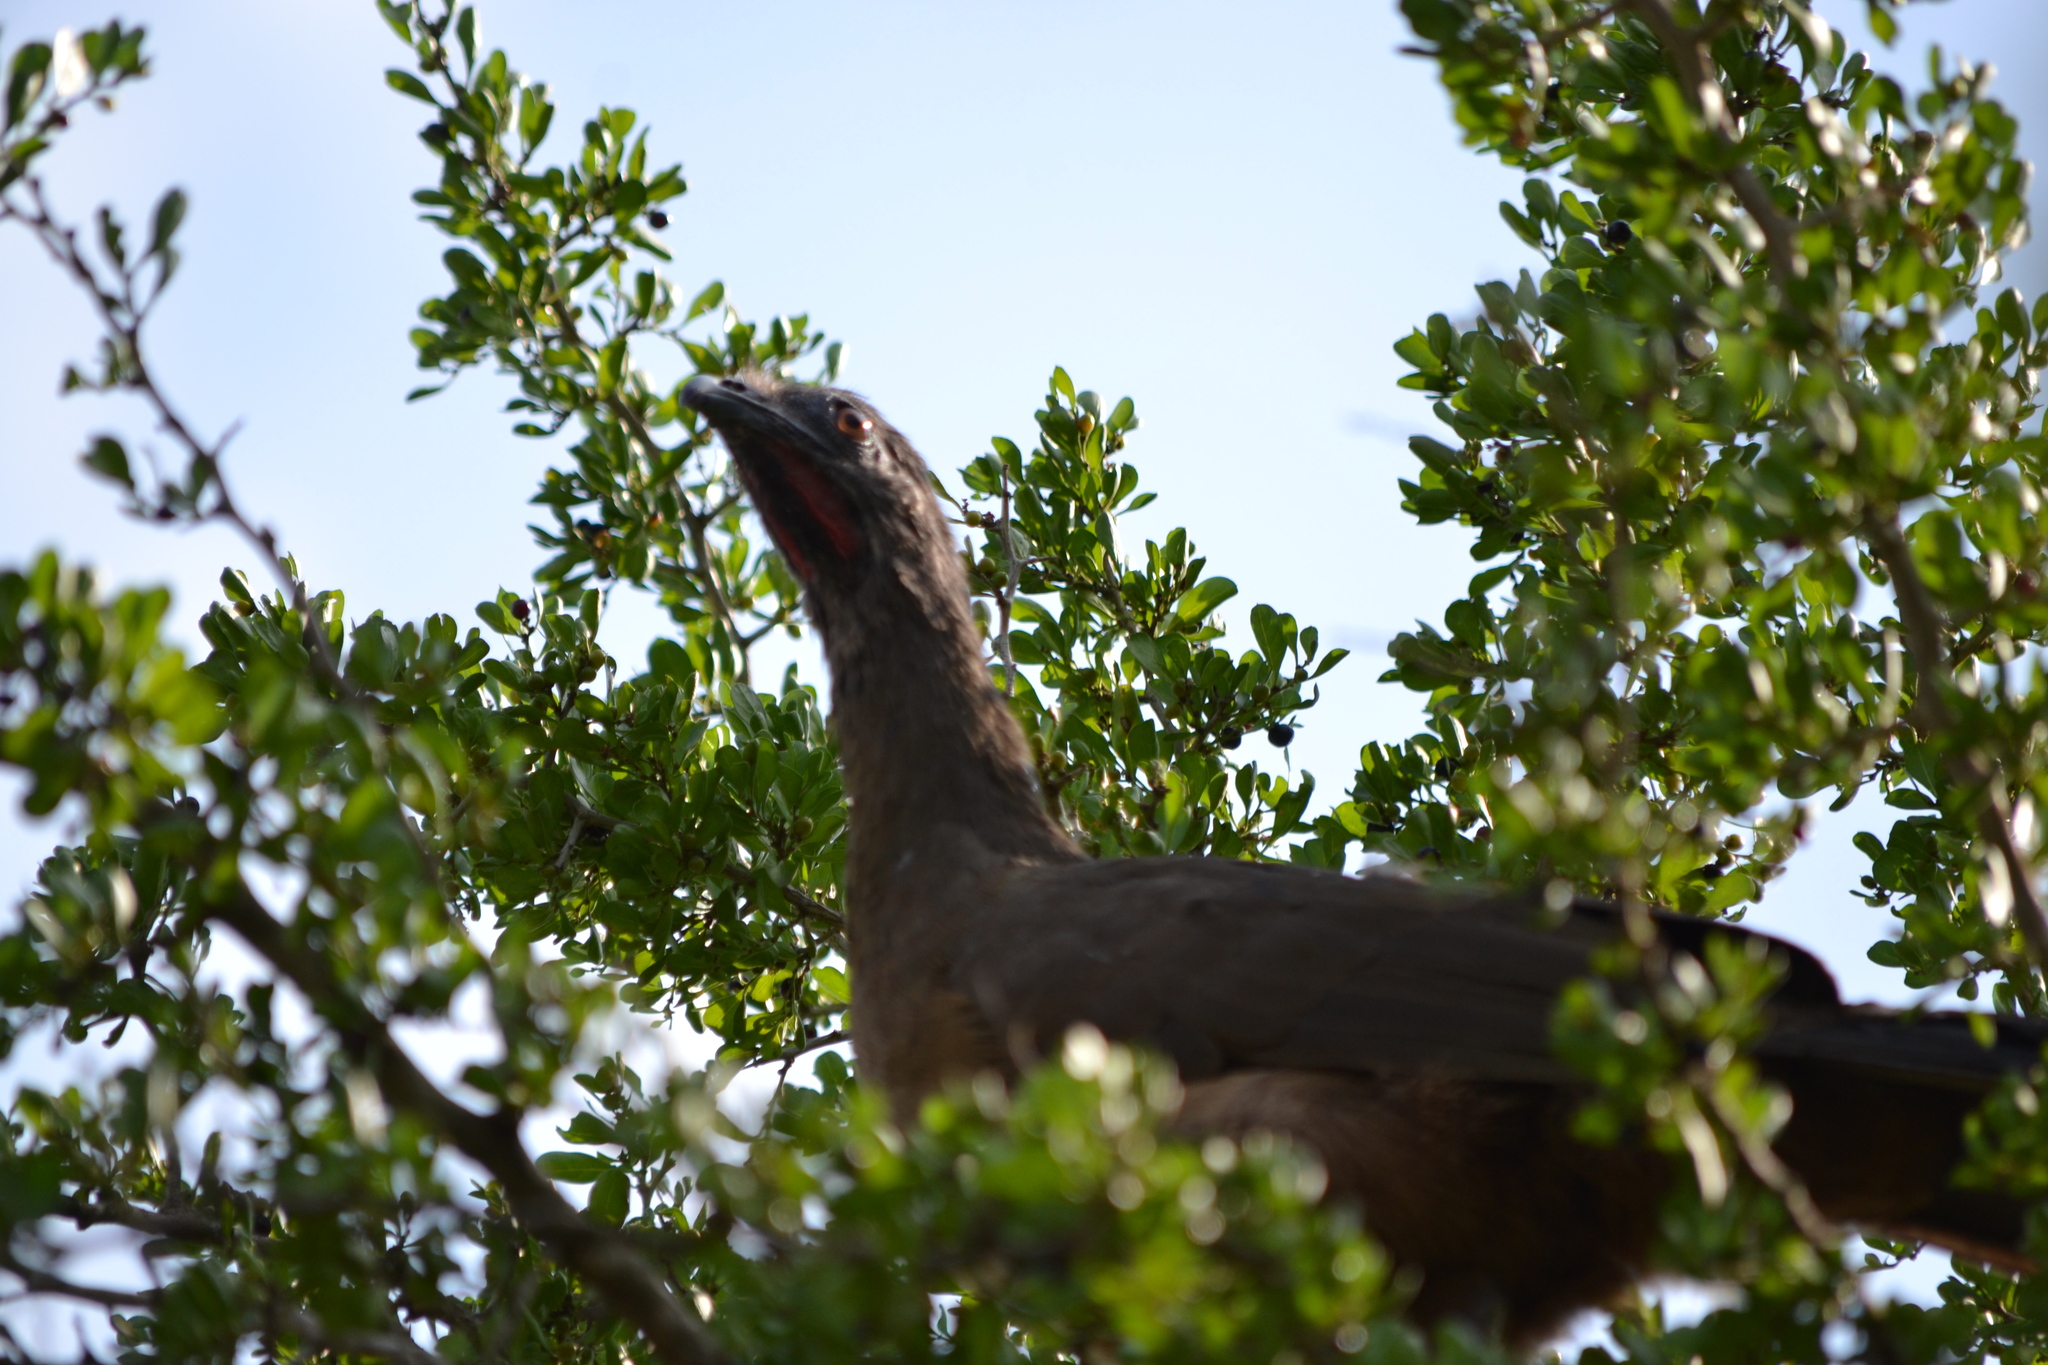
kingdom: Animalia
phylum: Chordata
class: Aves
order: Galliformes
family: Cracidae
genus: Ortalis
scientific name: Ortalis vetula
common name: Plain chachalaca
